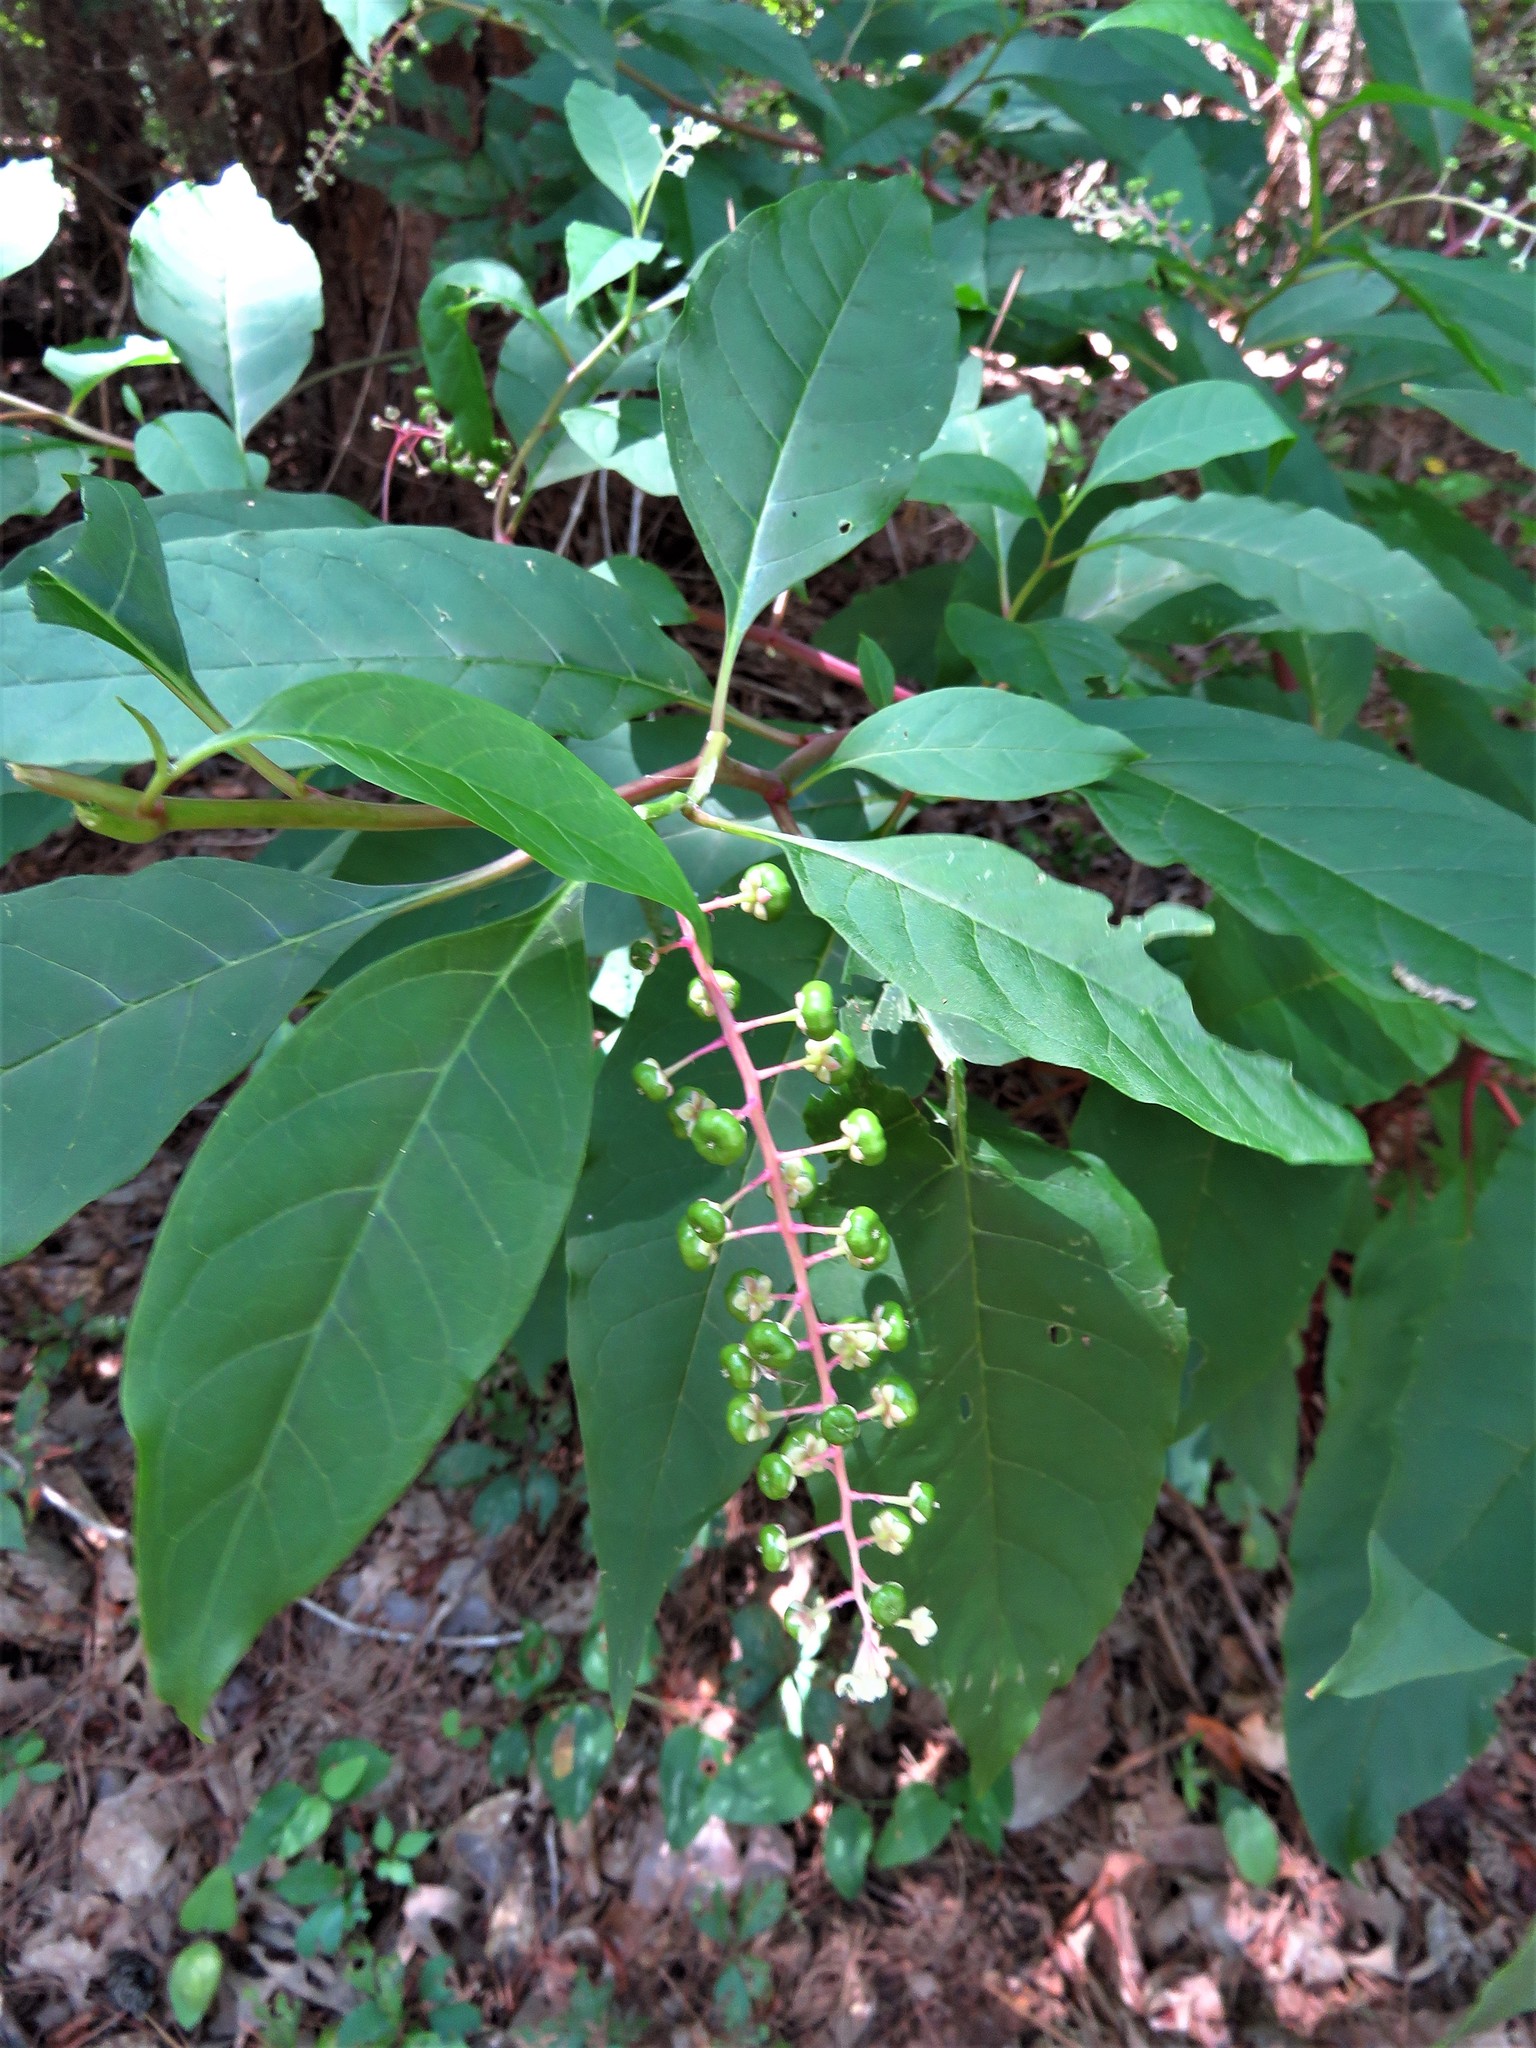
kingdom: Plantae
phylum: Tracheophyta
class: Magnoliopsida
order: Caryophyllales
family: Phytolaccaceae
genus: Phytolacca
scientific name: Phytolacca americana
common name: American pokeweed
